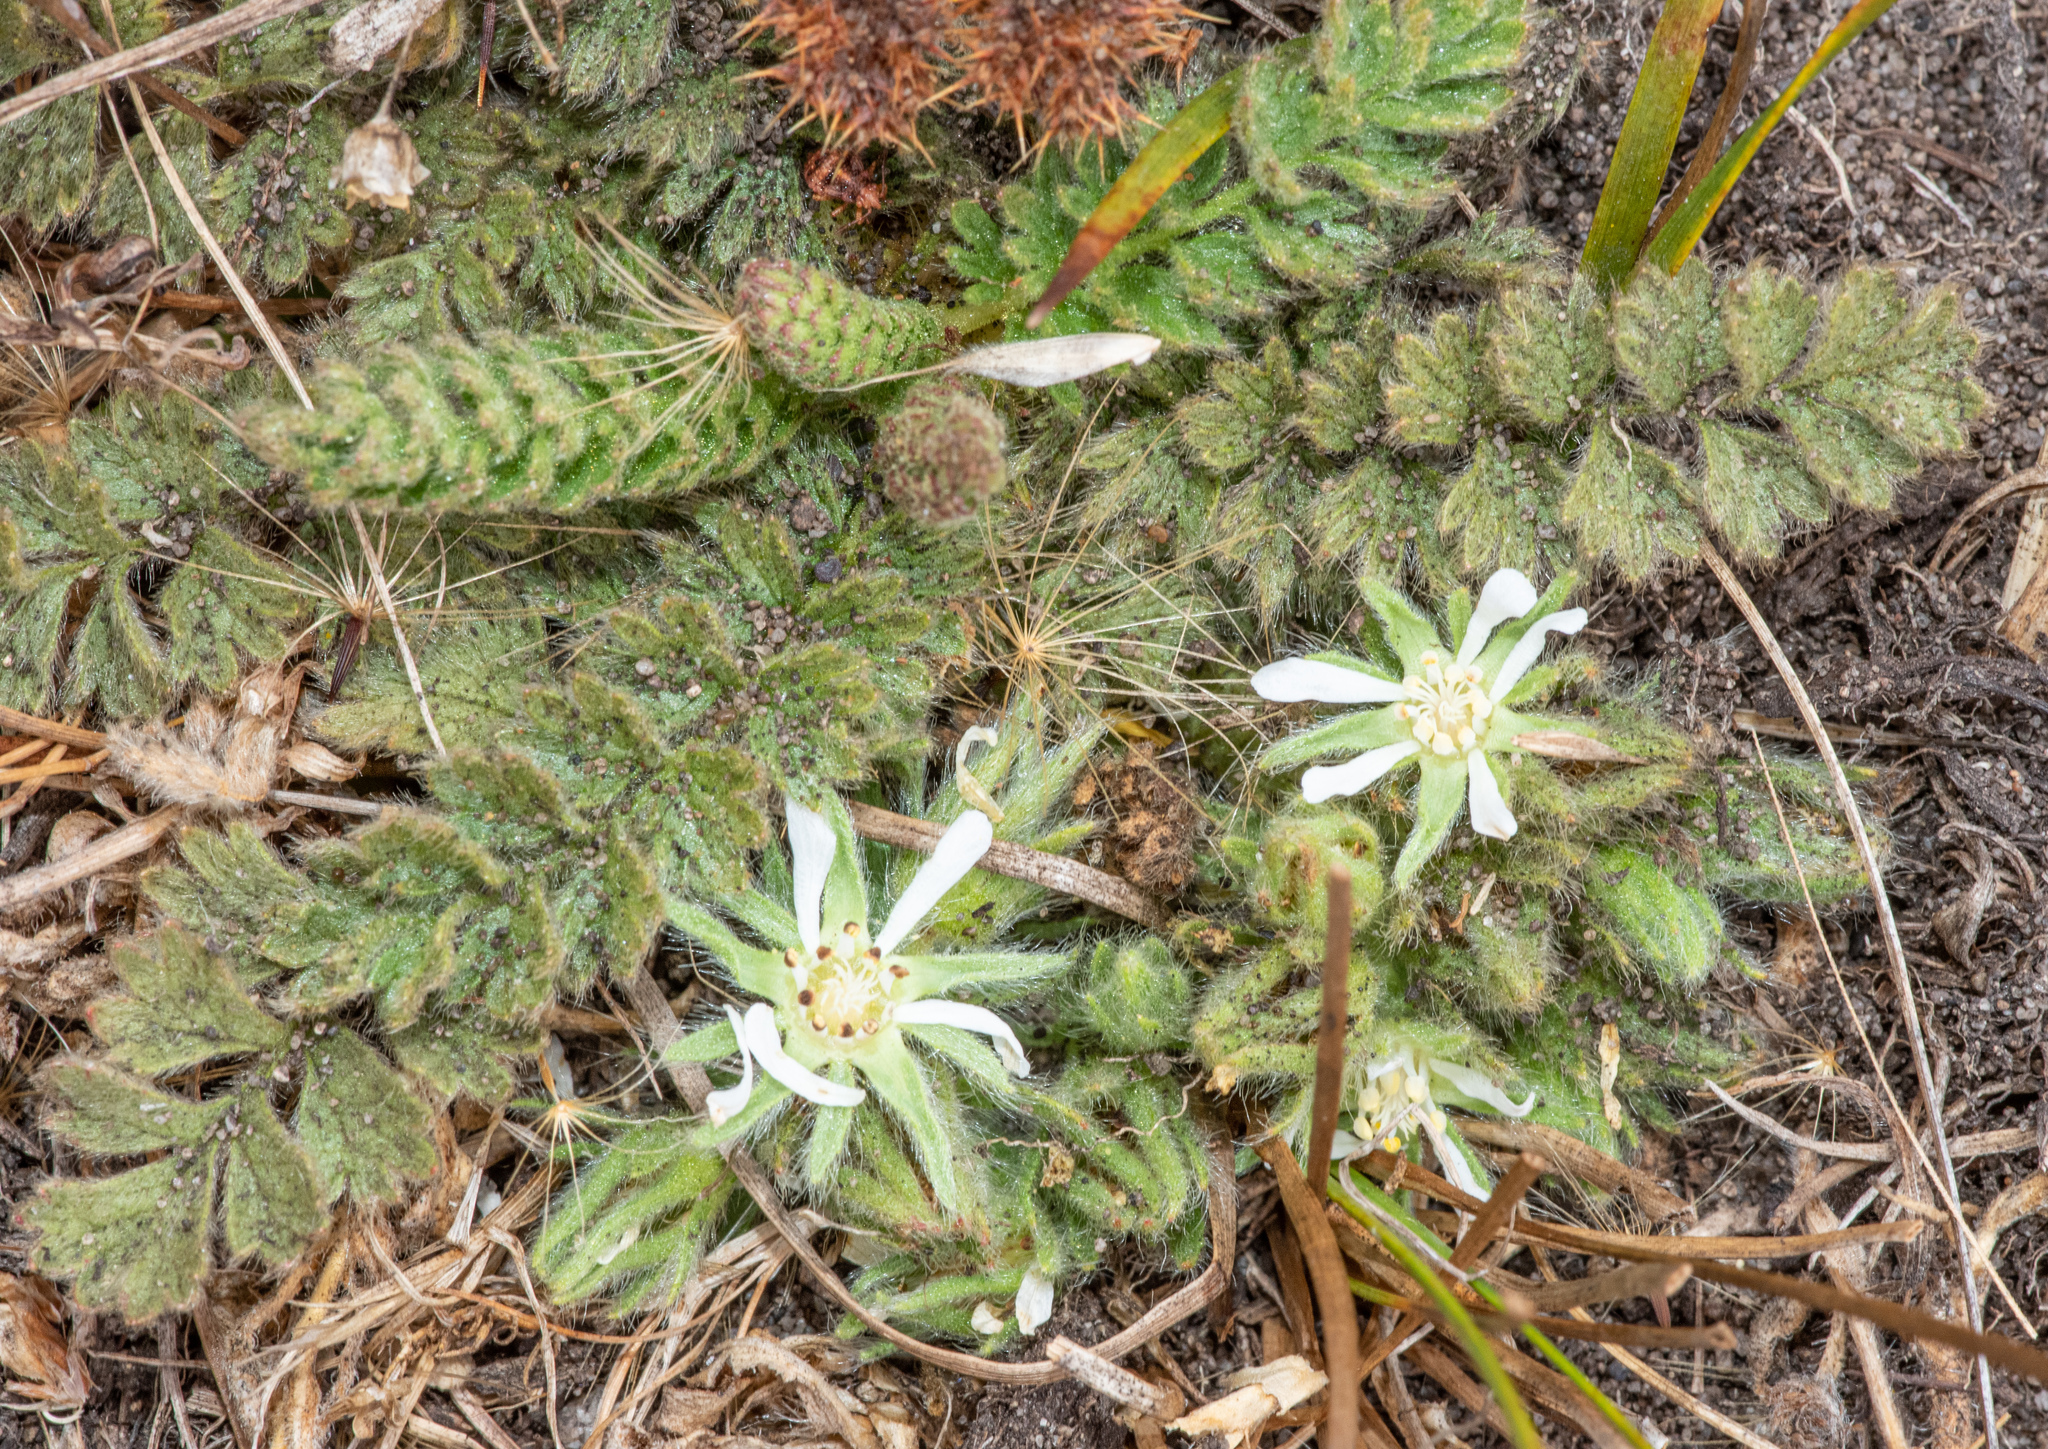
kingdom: Plantae
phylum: Tracheophyta
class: Magnoliopsida
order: Rosales
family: Rosaceae
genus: Potentilla
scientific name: Potentilla marinensis
